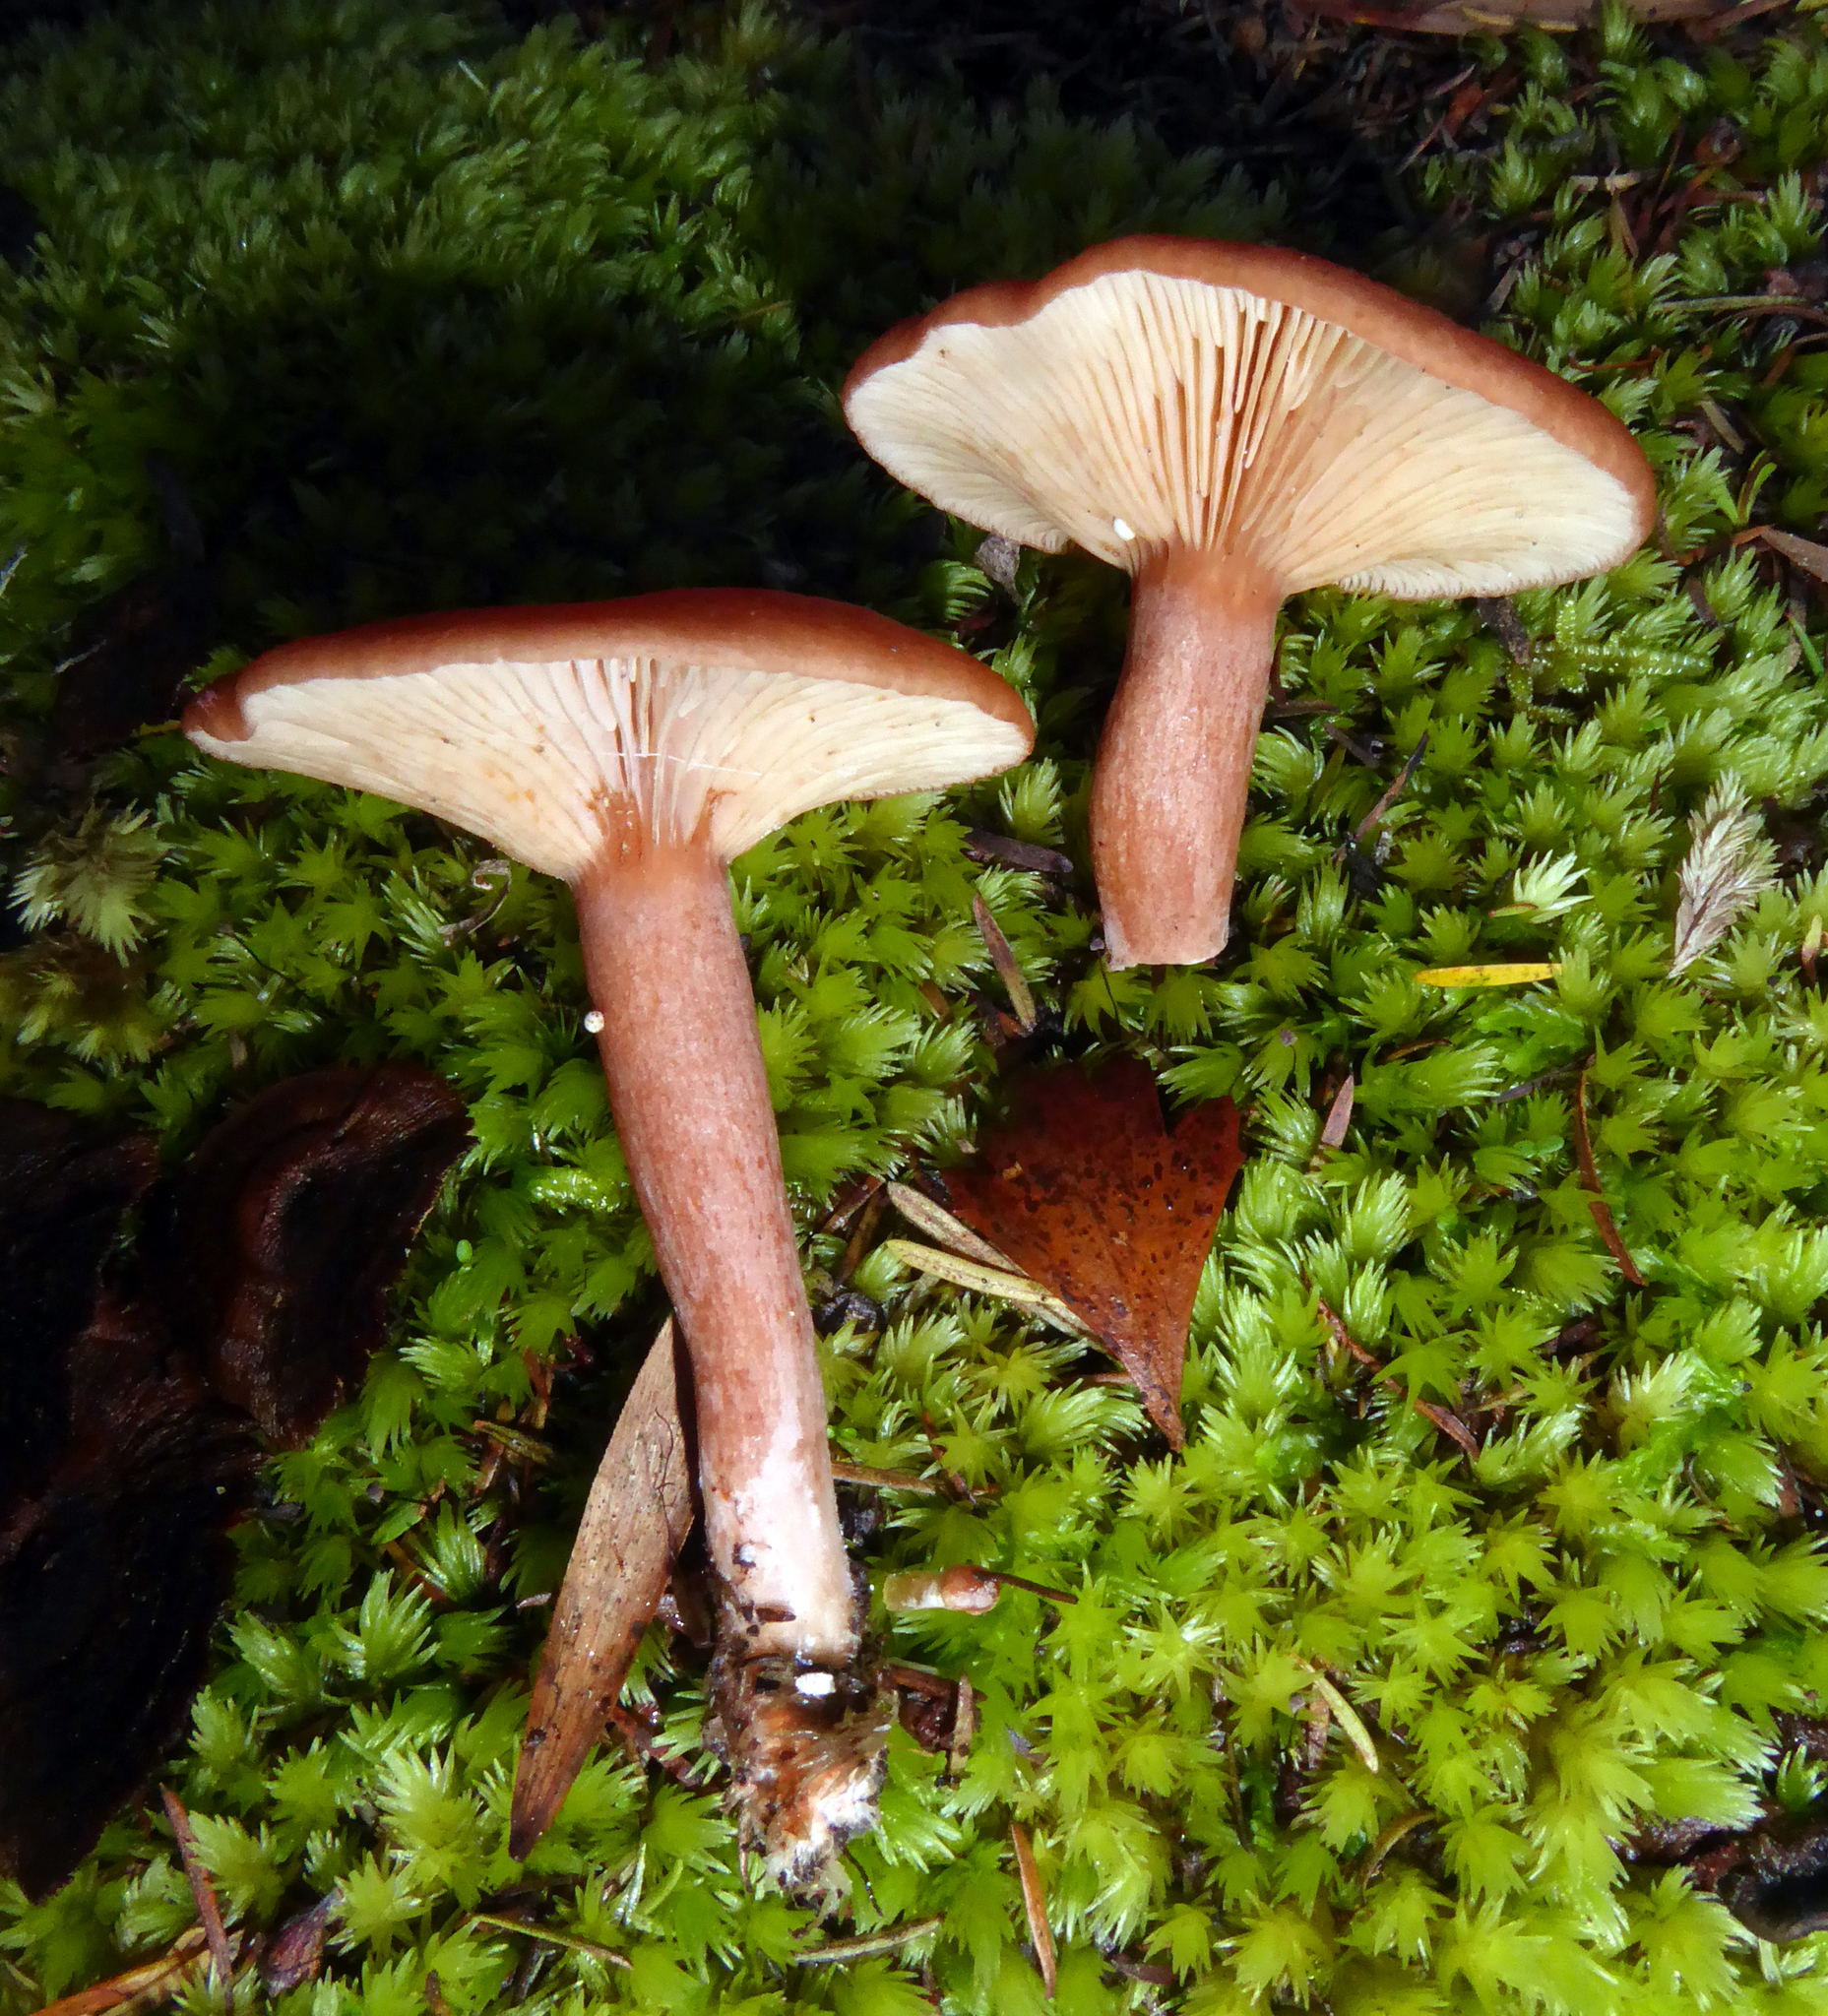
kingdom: Fungi
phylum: Basidiomycota
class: Agaricomycetes
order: Russulales
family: Russulaceae
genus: Lactarius
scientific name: Lactarius
